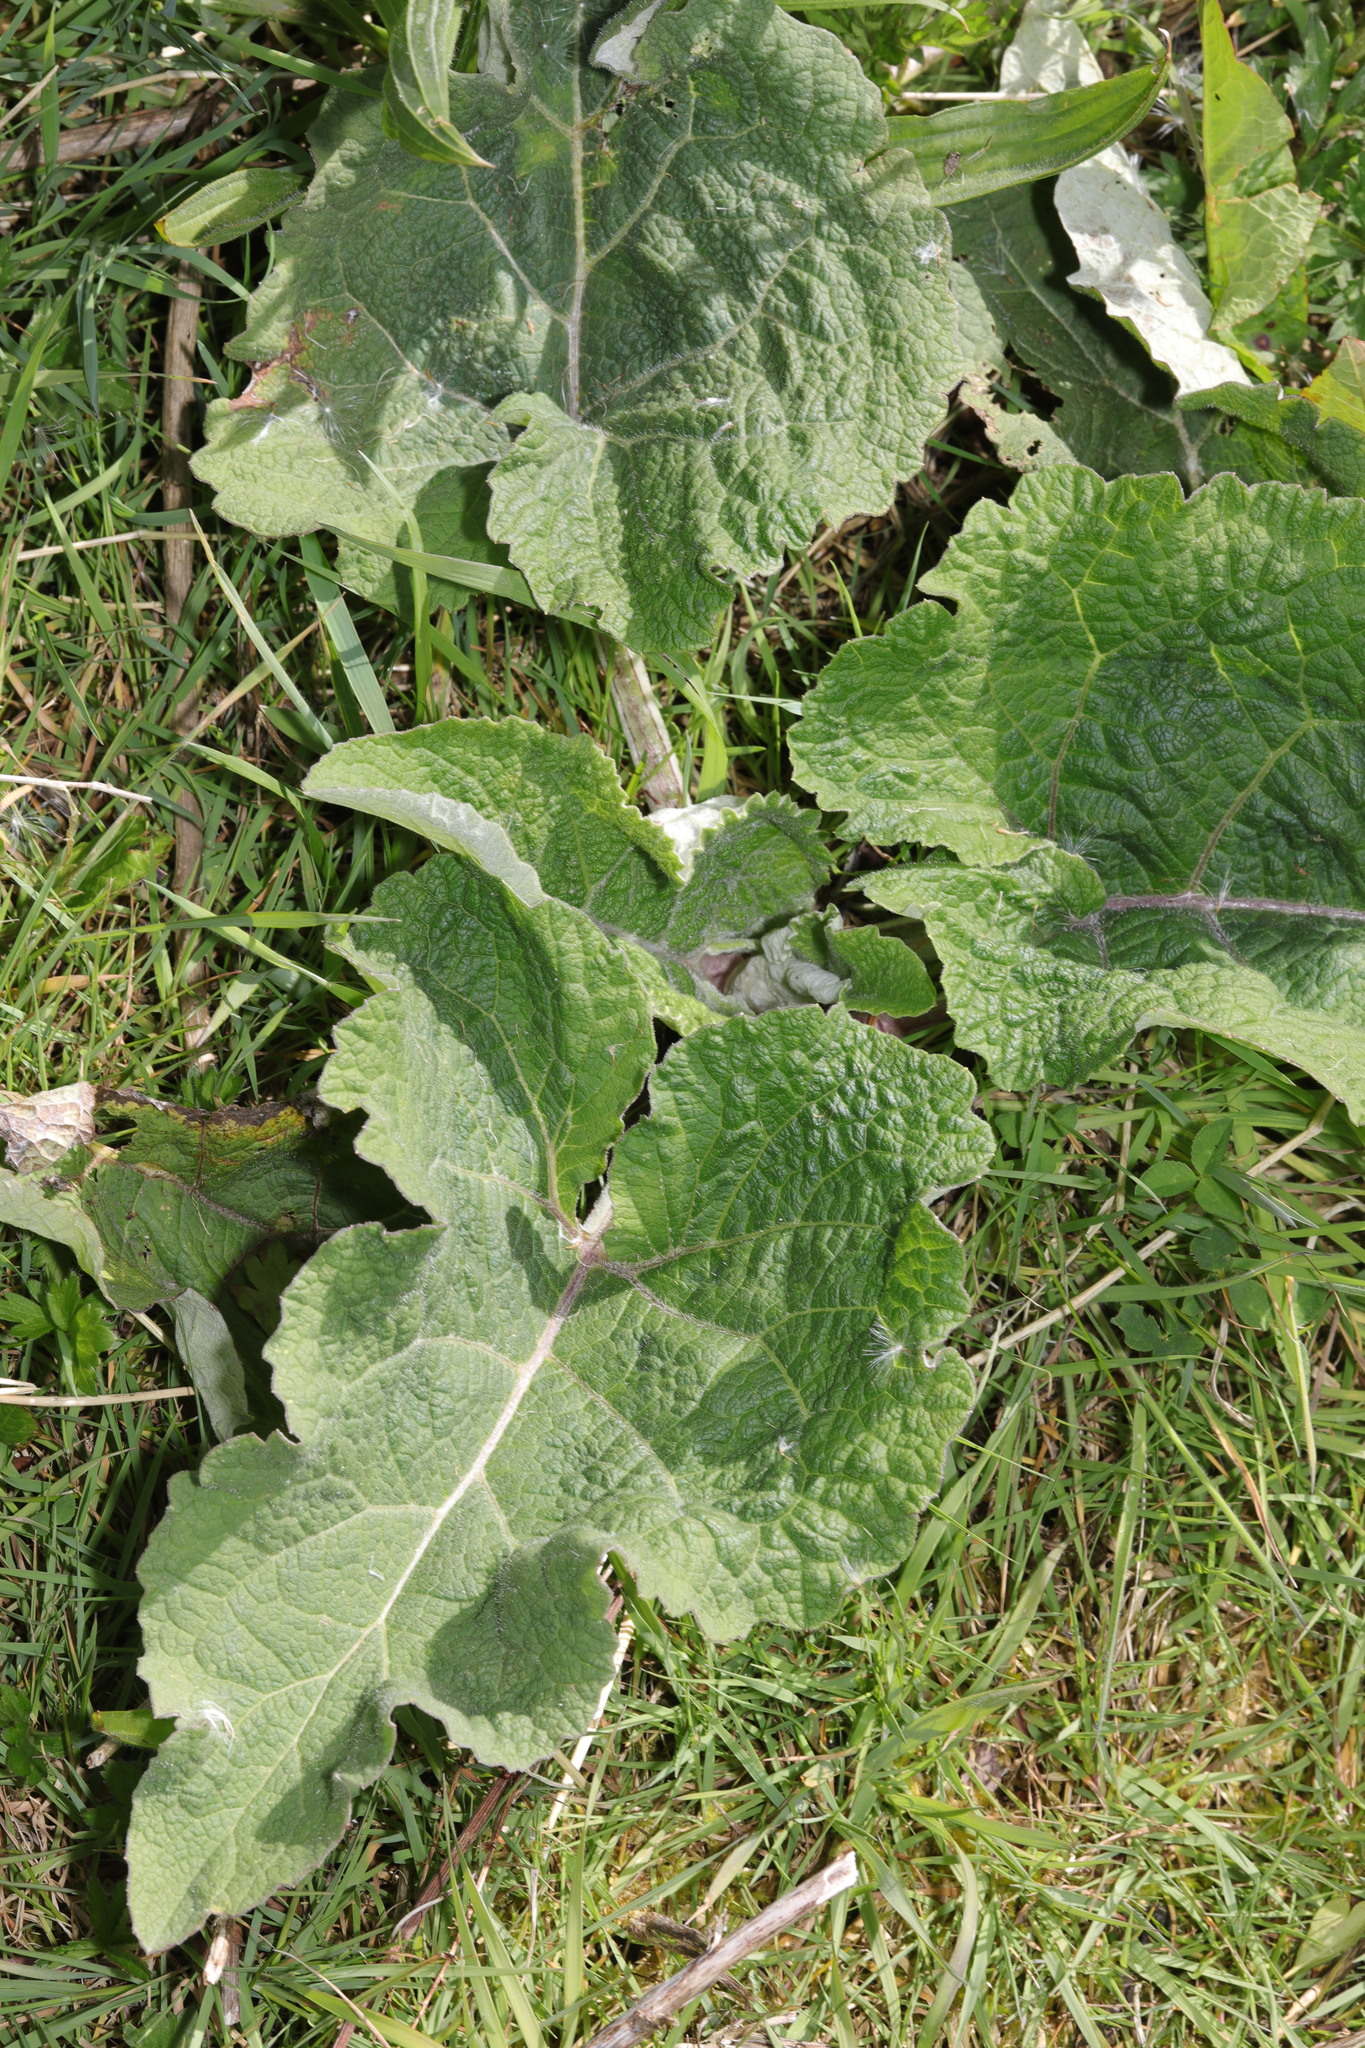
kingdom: Plantae
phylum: Tracheophyta
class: Magnoliopsida
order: Asterales
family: Asteraceae
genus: Arctium
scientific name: Arctium minus
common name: Lesser burdock
